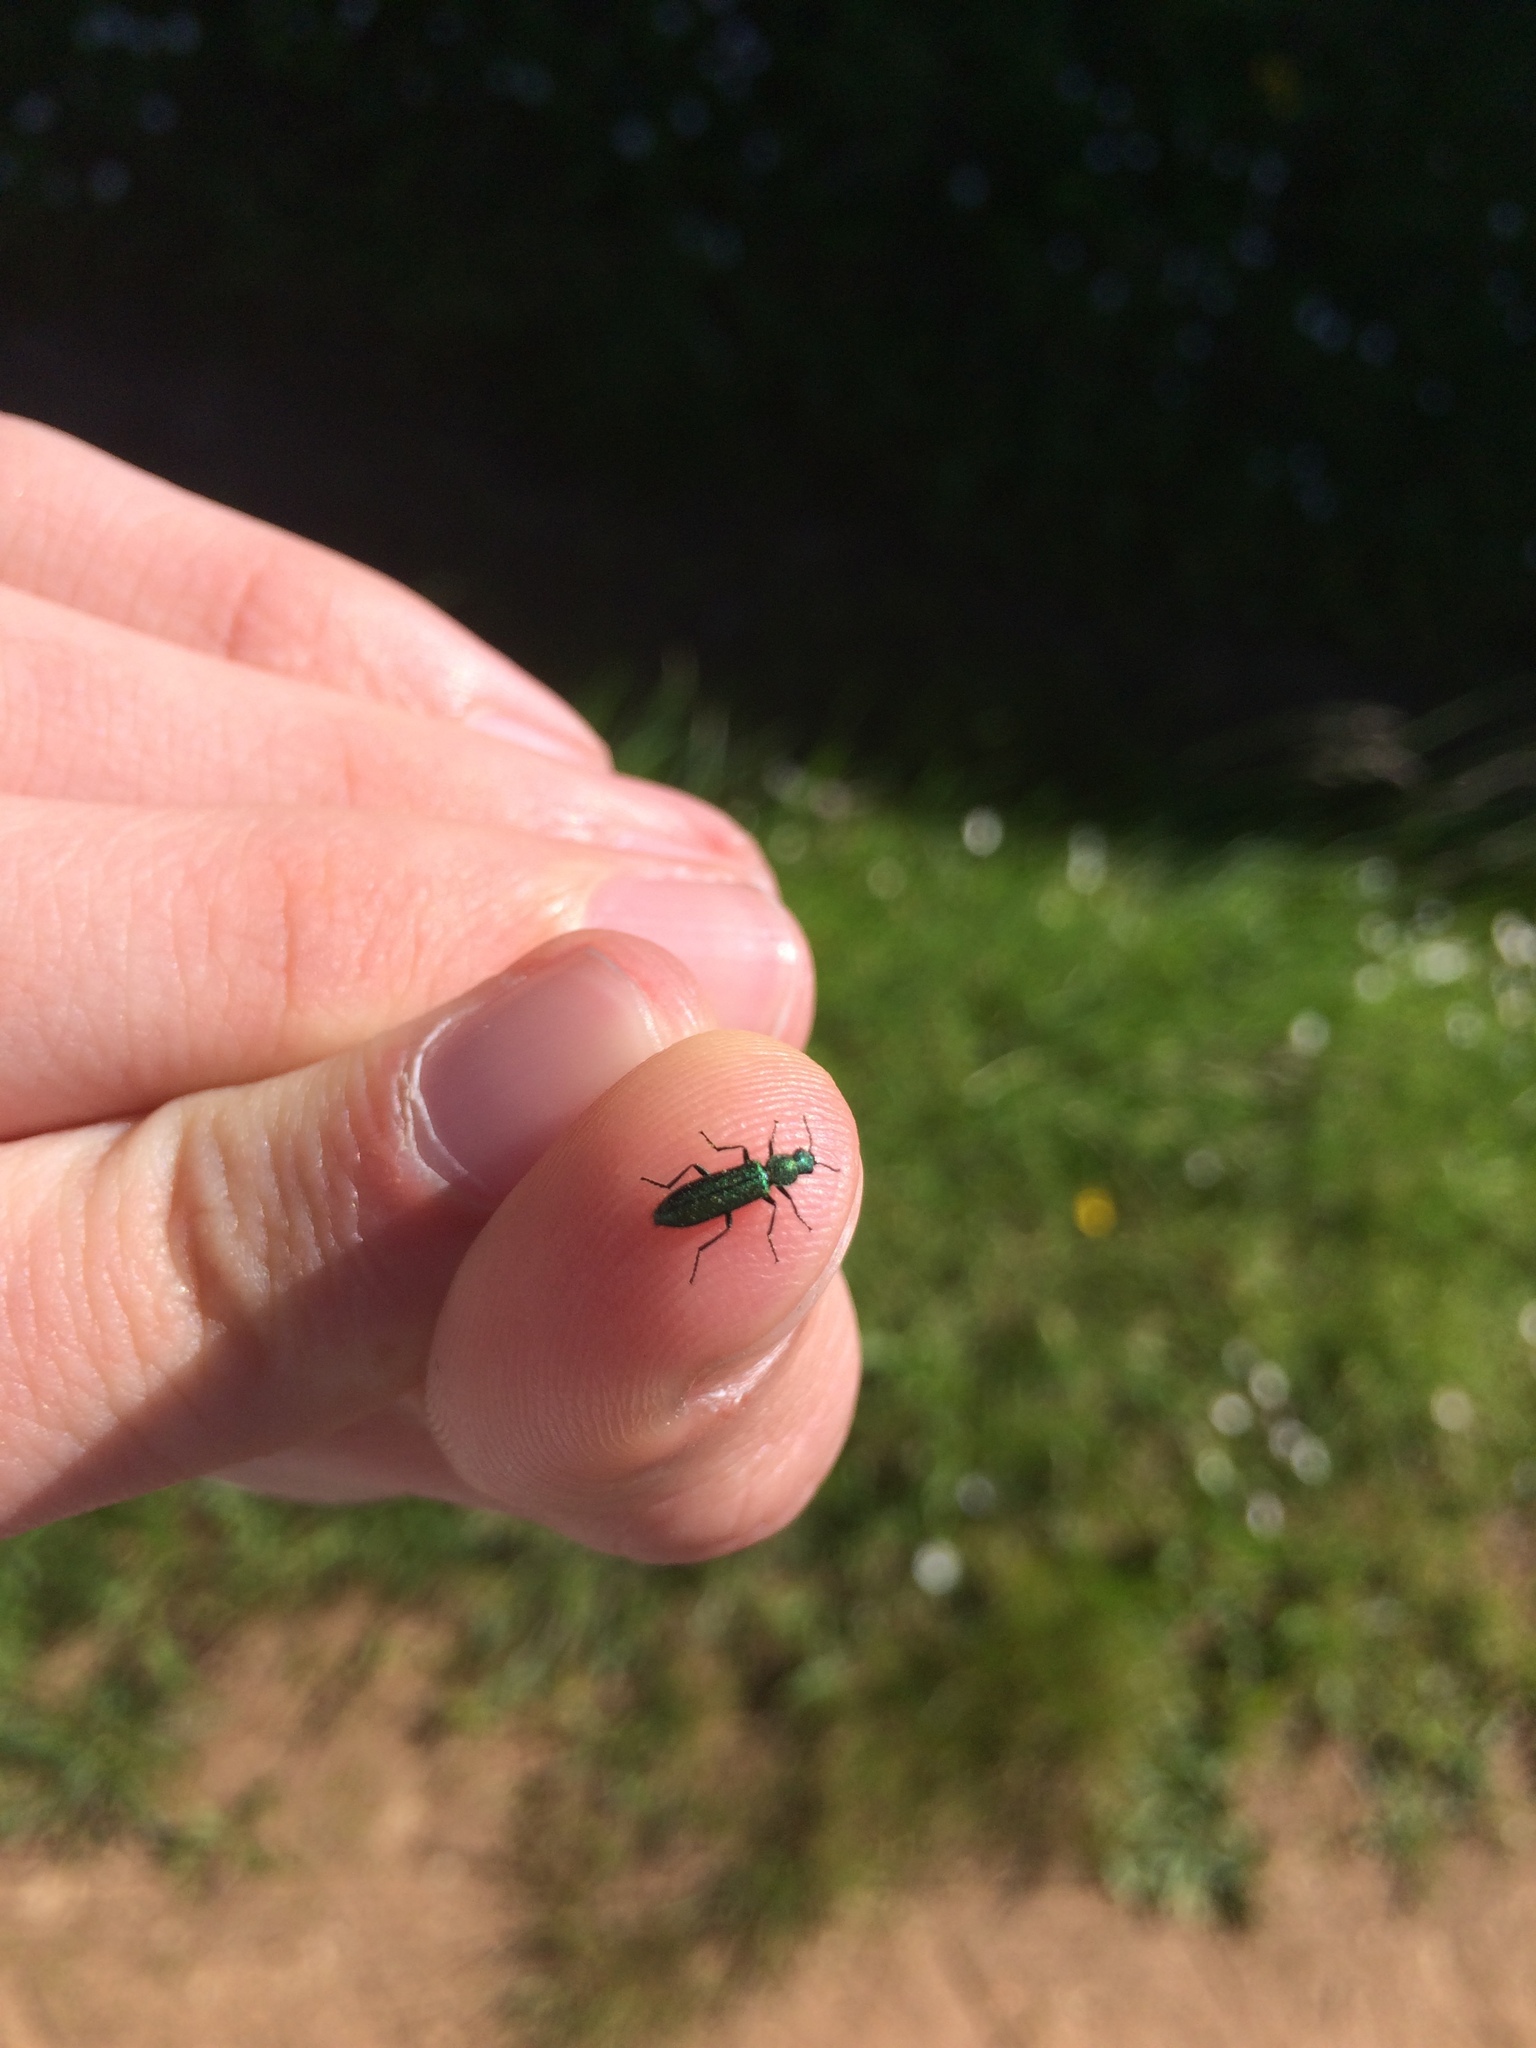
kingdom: Animalia
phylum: Arthropoda
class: Insecta
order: Coleoptera
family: Dasytidae
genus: Psilothrix
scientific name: Psilothrix viridicoerulea
